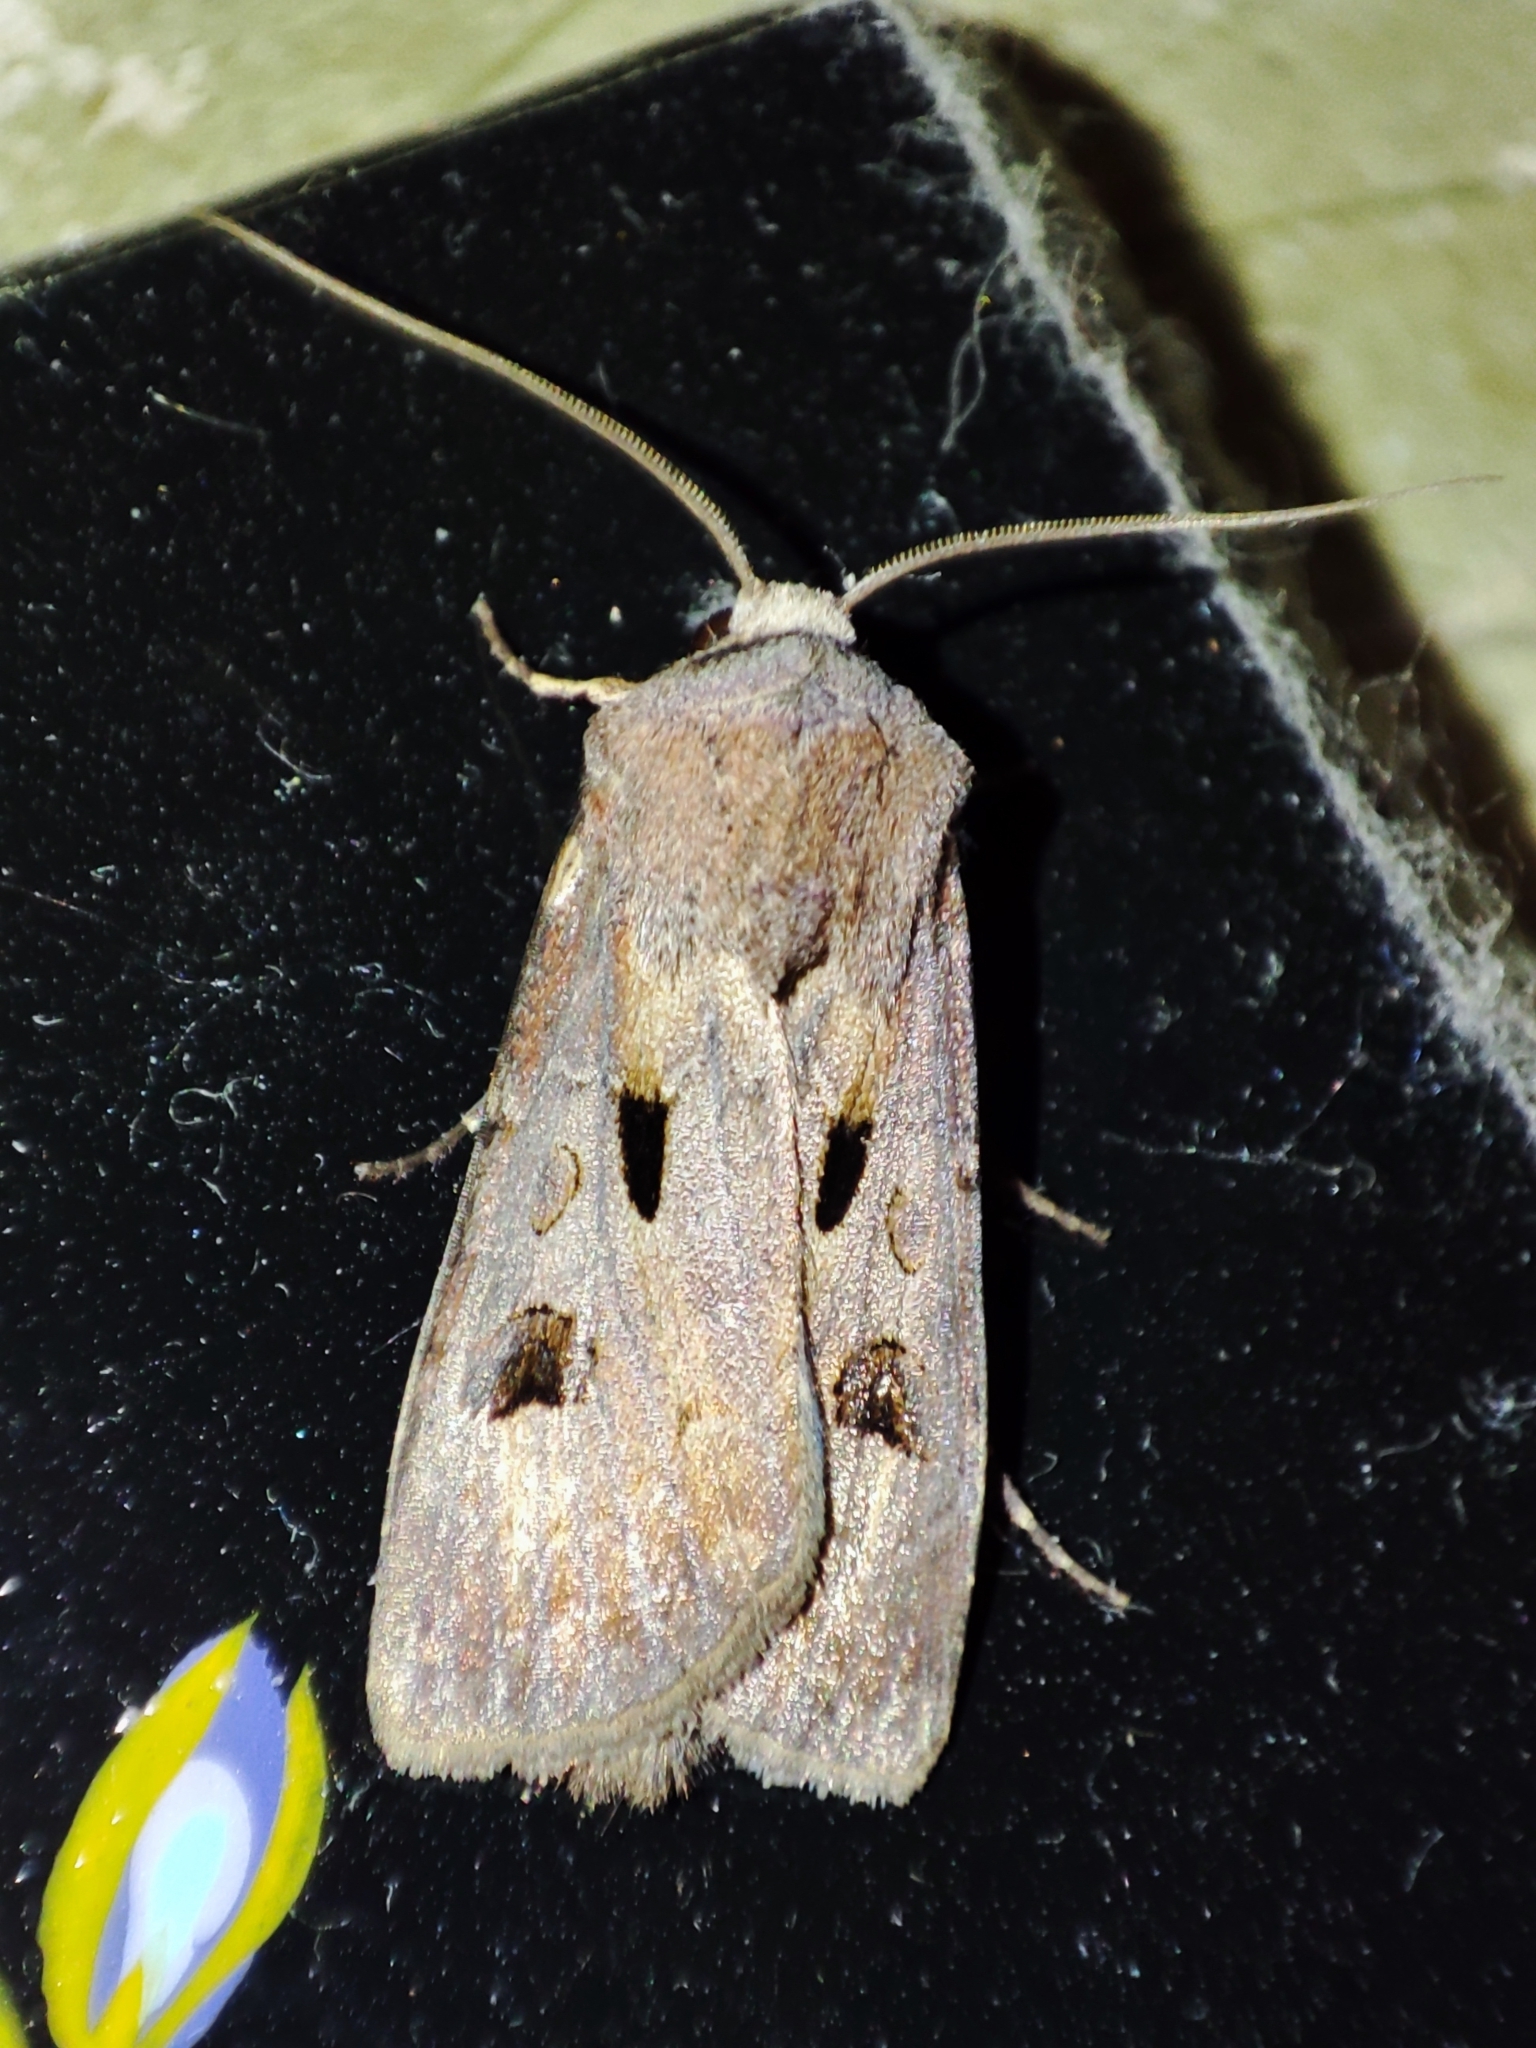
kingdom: Animalia
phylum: Arthropoda
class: Insecta
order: Lepidoptera
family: Noctuidae
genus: Agrotis
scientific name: Agrotis exclamationis
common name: Heart and dart
